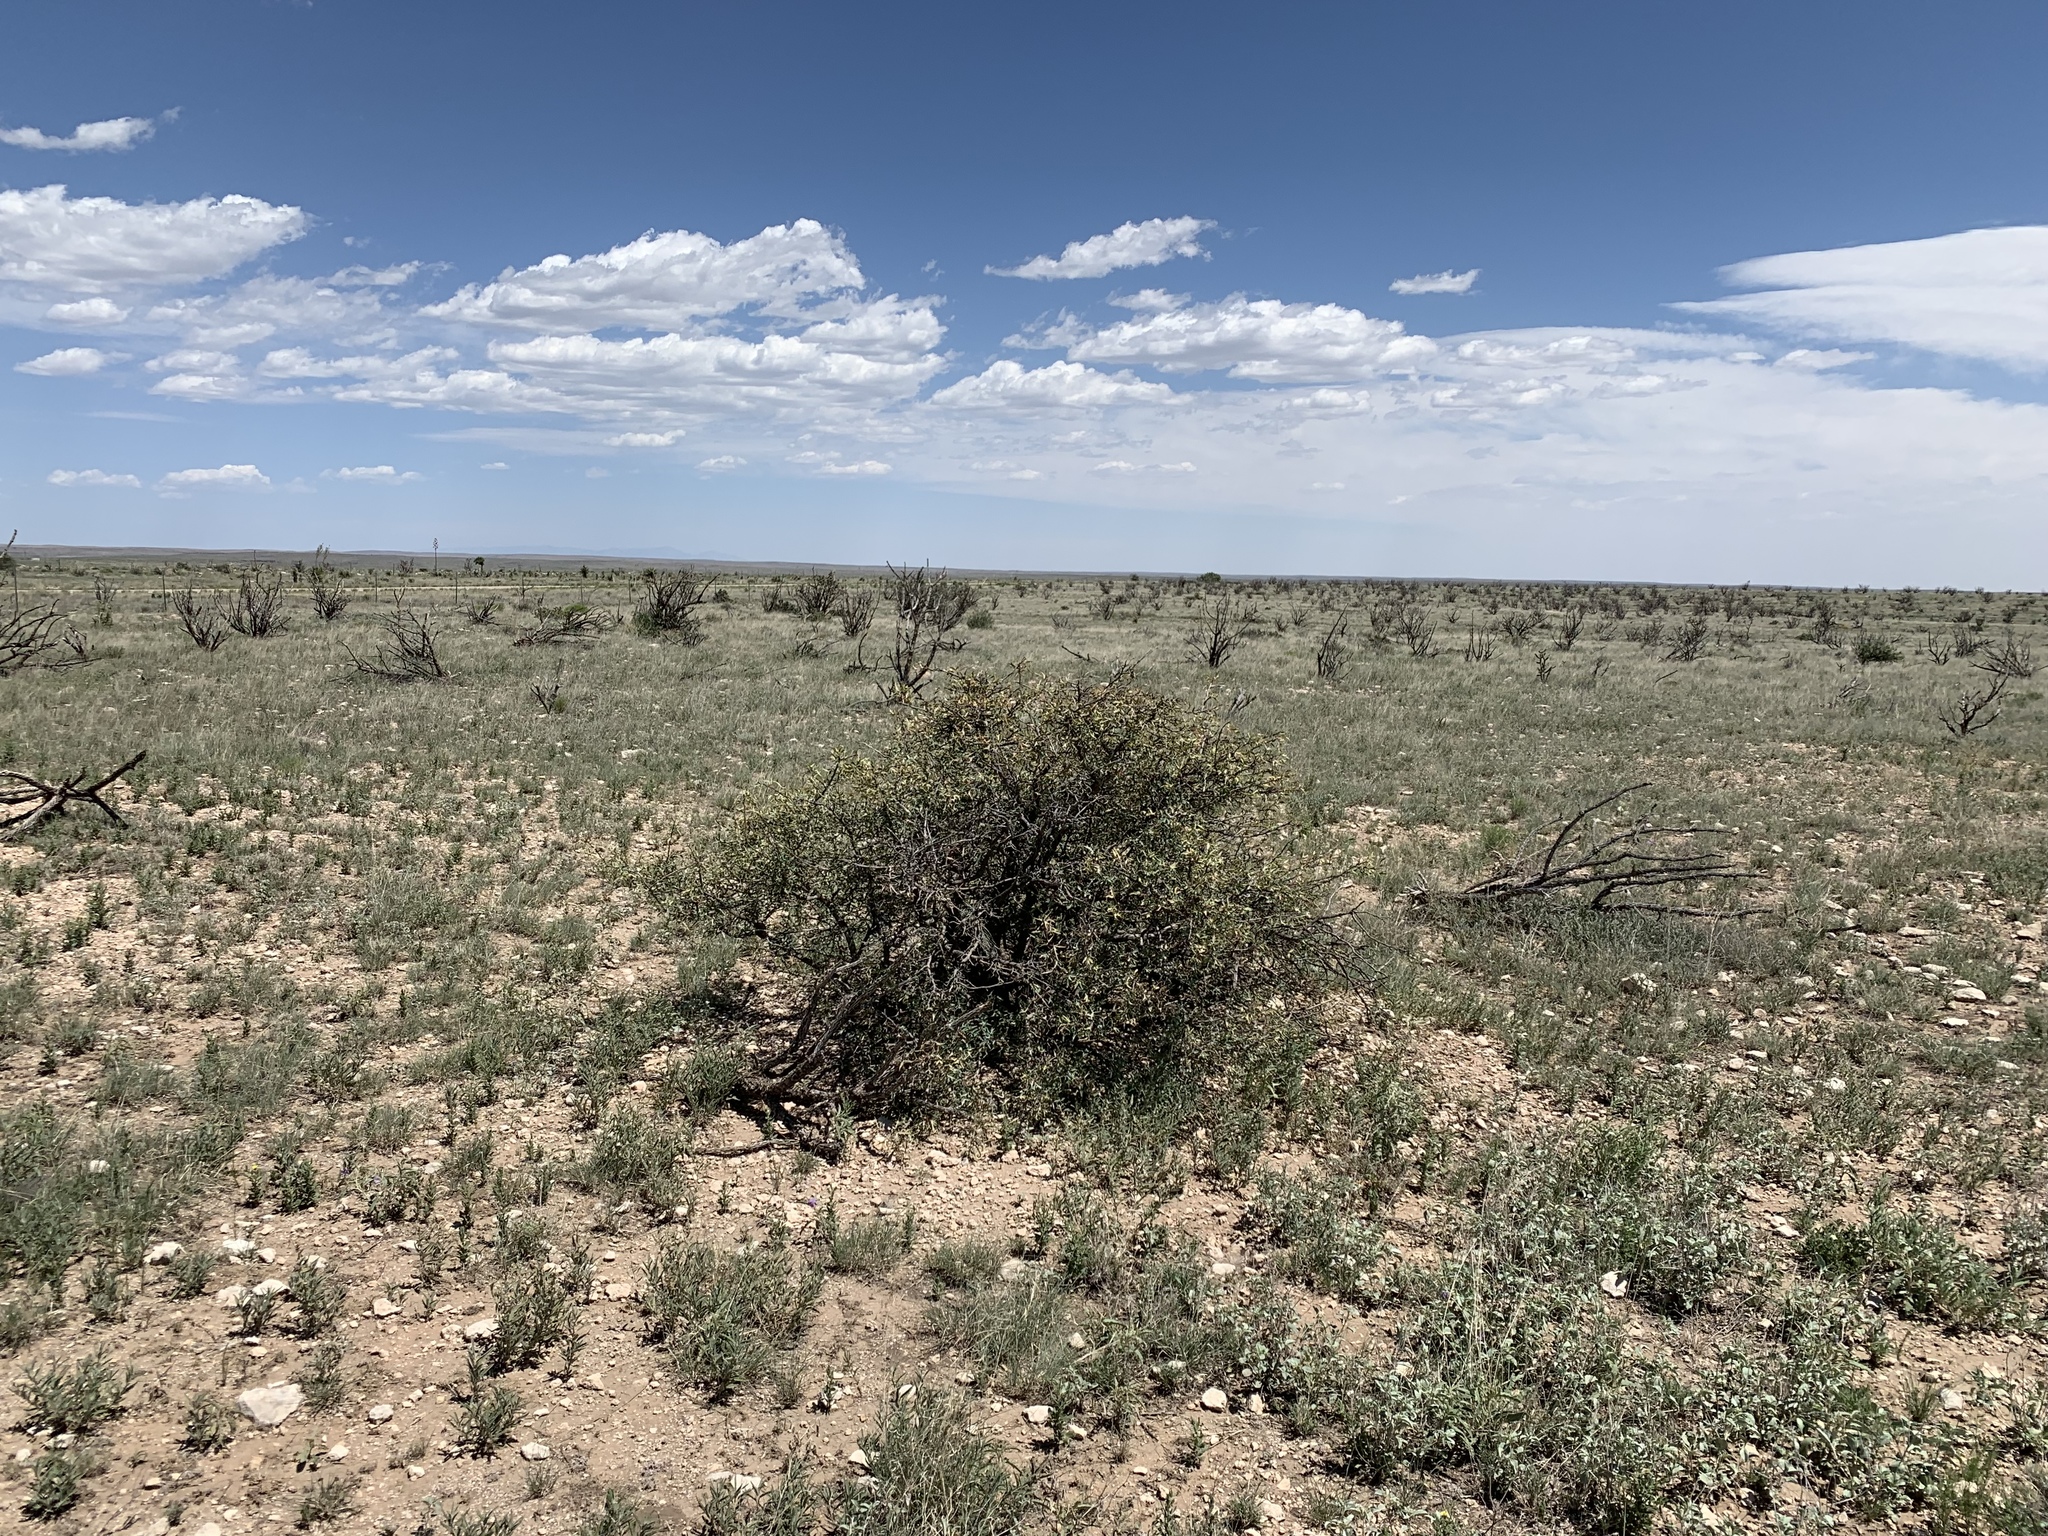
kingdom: Plantae
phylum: Tracheophyta
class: Magnoliopsida
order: Ranunculales
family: Berberidaceae
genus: Alloberberis
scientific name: Alloberberis trifoliolata
